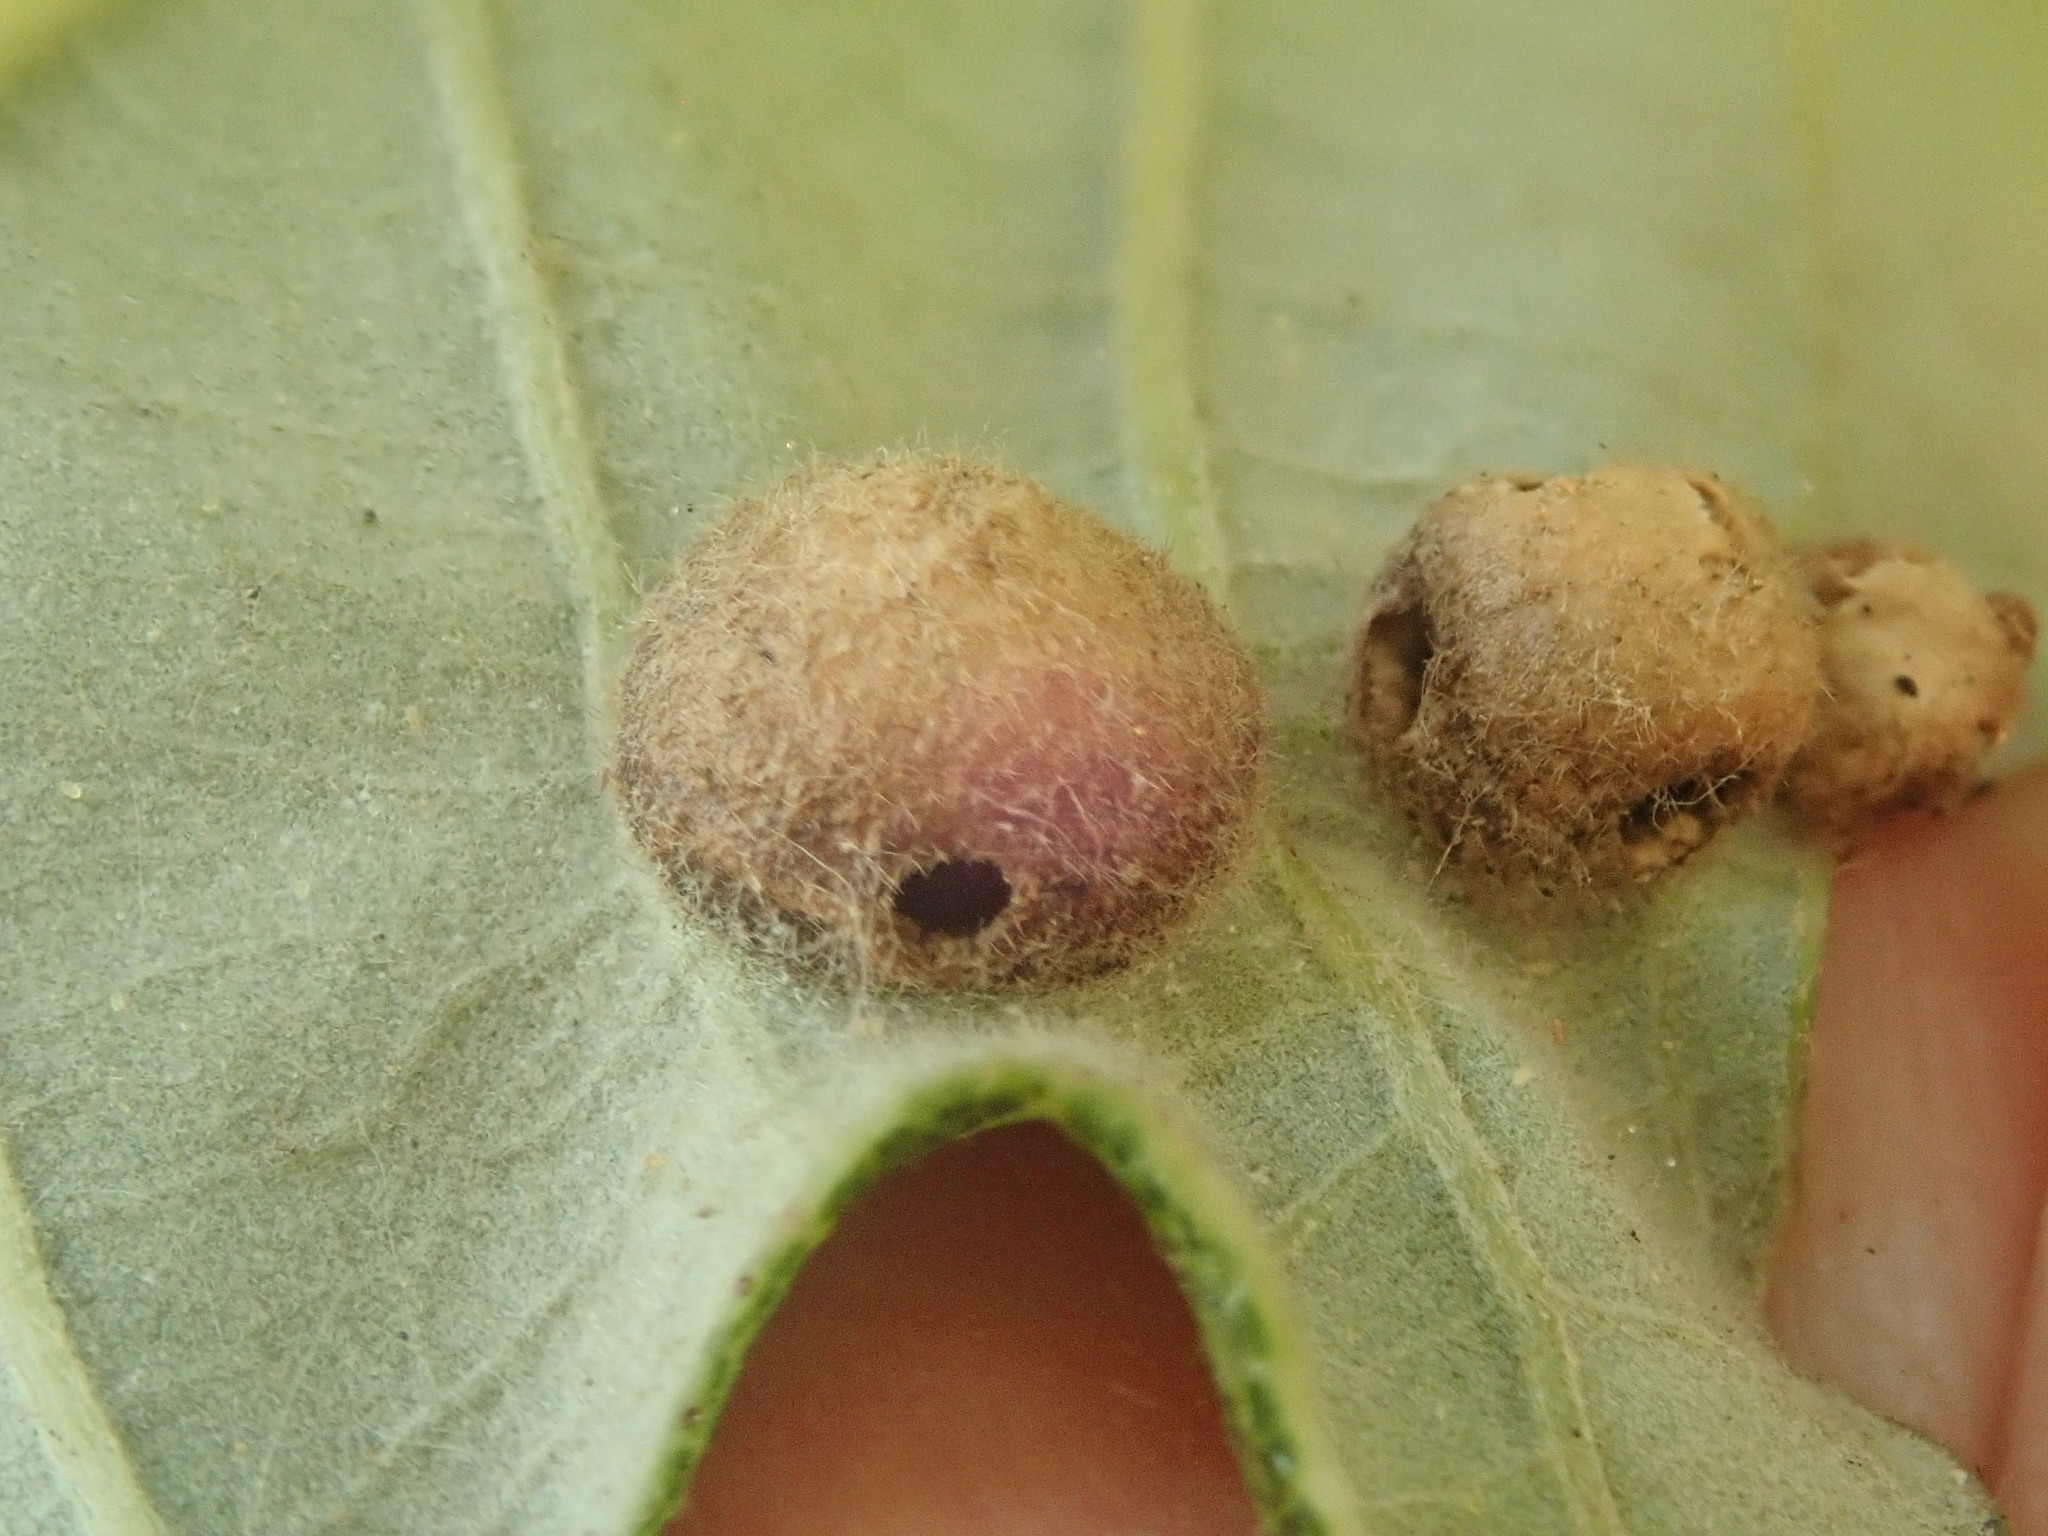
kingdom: Animalia
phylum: Arthropoda
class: Insecta
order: Hymenoptera
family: Cynipidae
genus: Callirhytis
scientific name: Callirhytis
